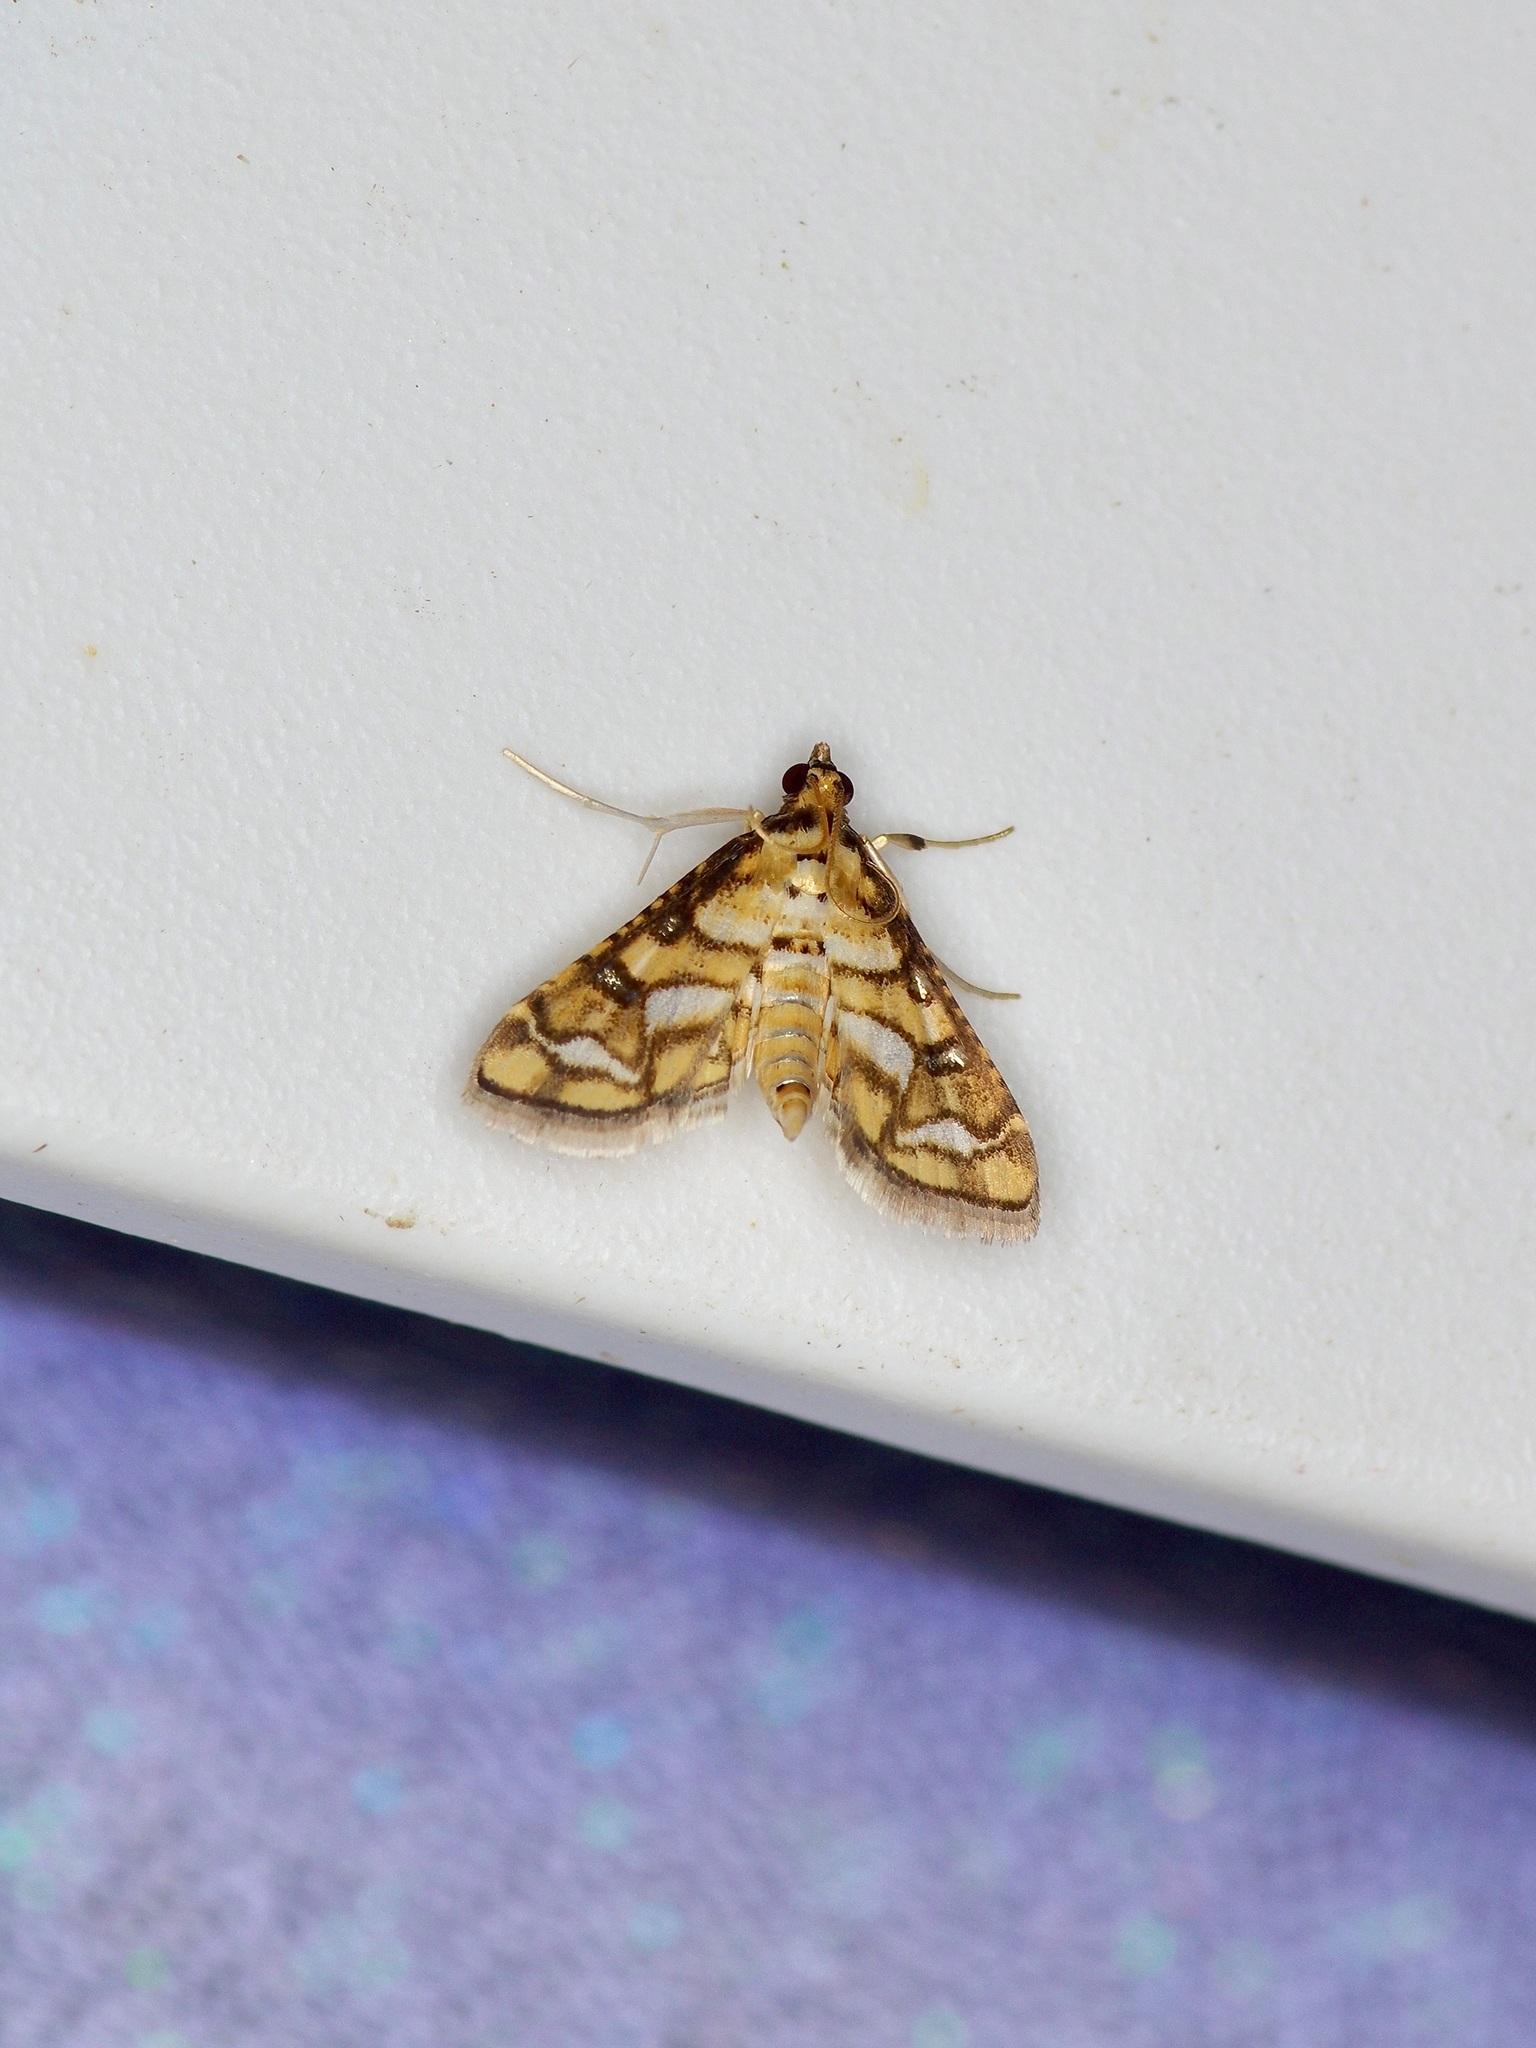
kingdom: Animalia
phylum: Arthropoda
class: Insecta
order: Lepidoptera
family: Crambidae
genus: Hileithia
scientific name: Hileithia magualis
